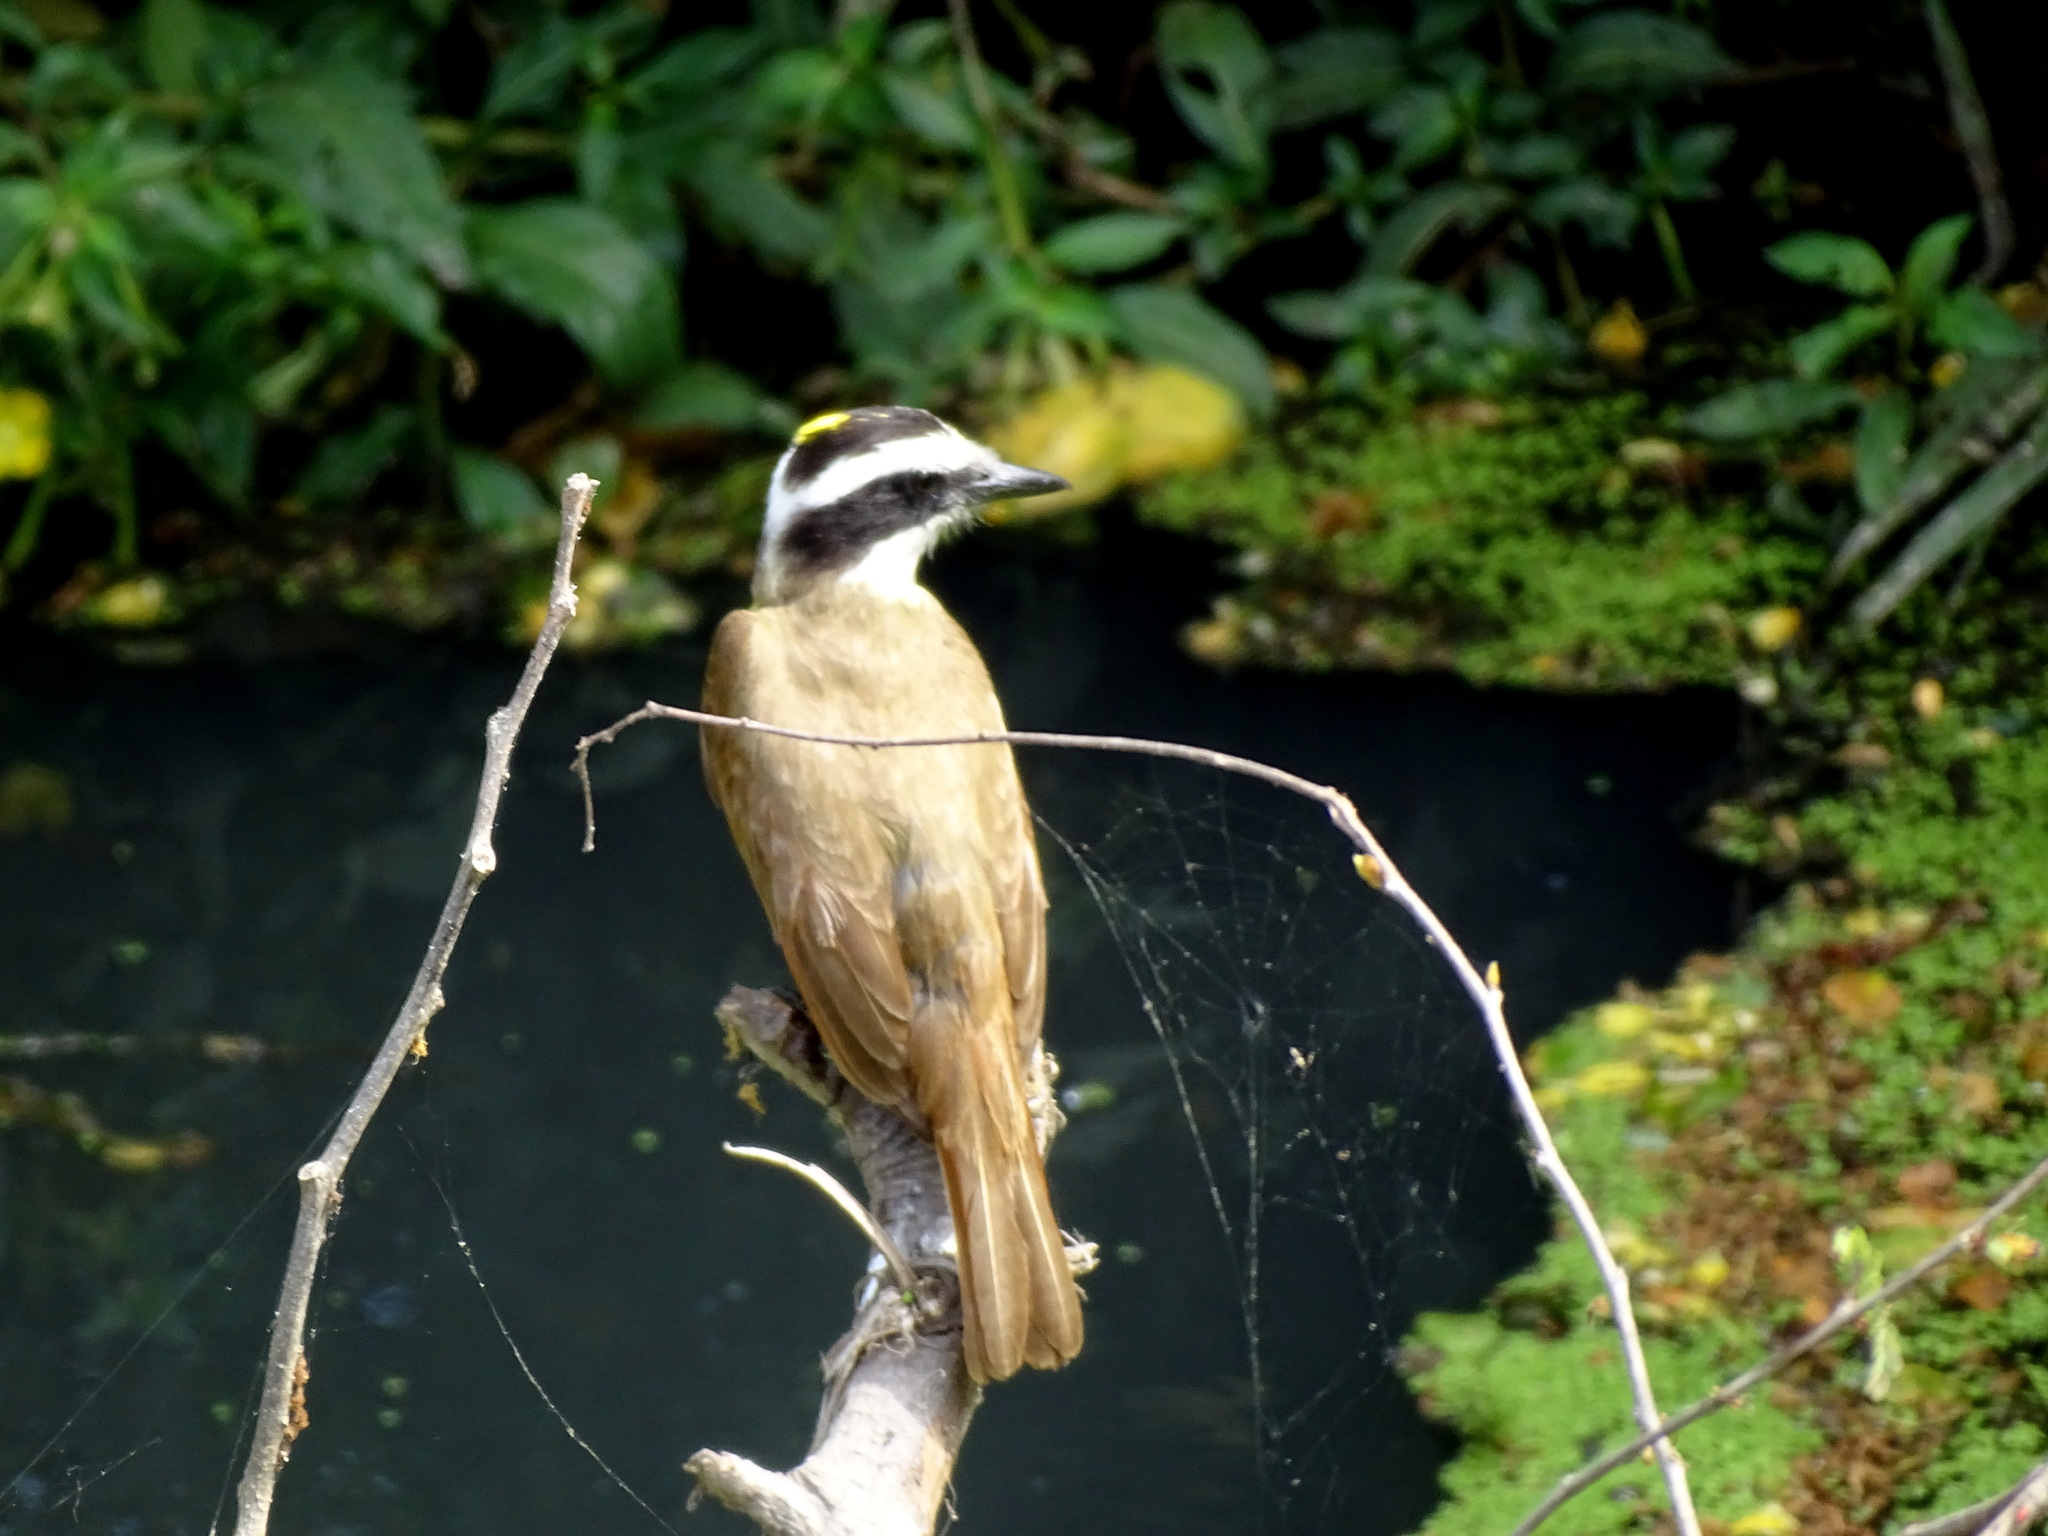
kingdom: Animalia
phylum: Chordata
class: Aves
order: Passeriformes
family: Tyrannidae
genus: Pitangus
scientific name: Pitangus sulphuratus
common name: Great kiskadee
